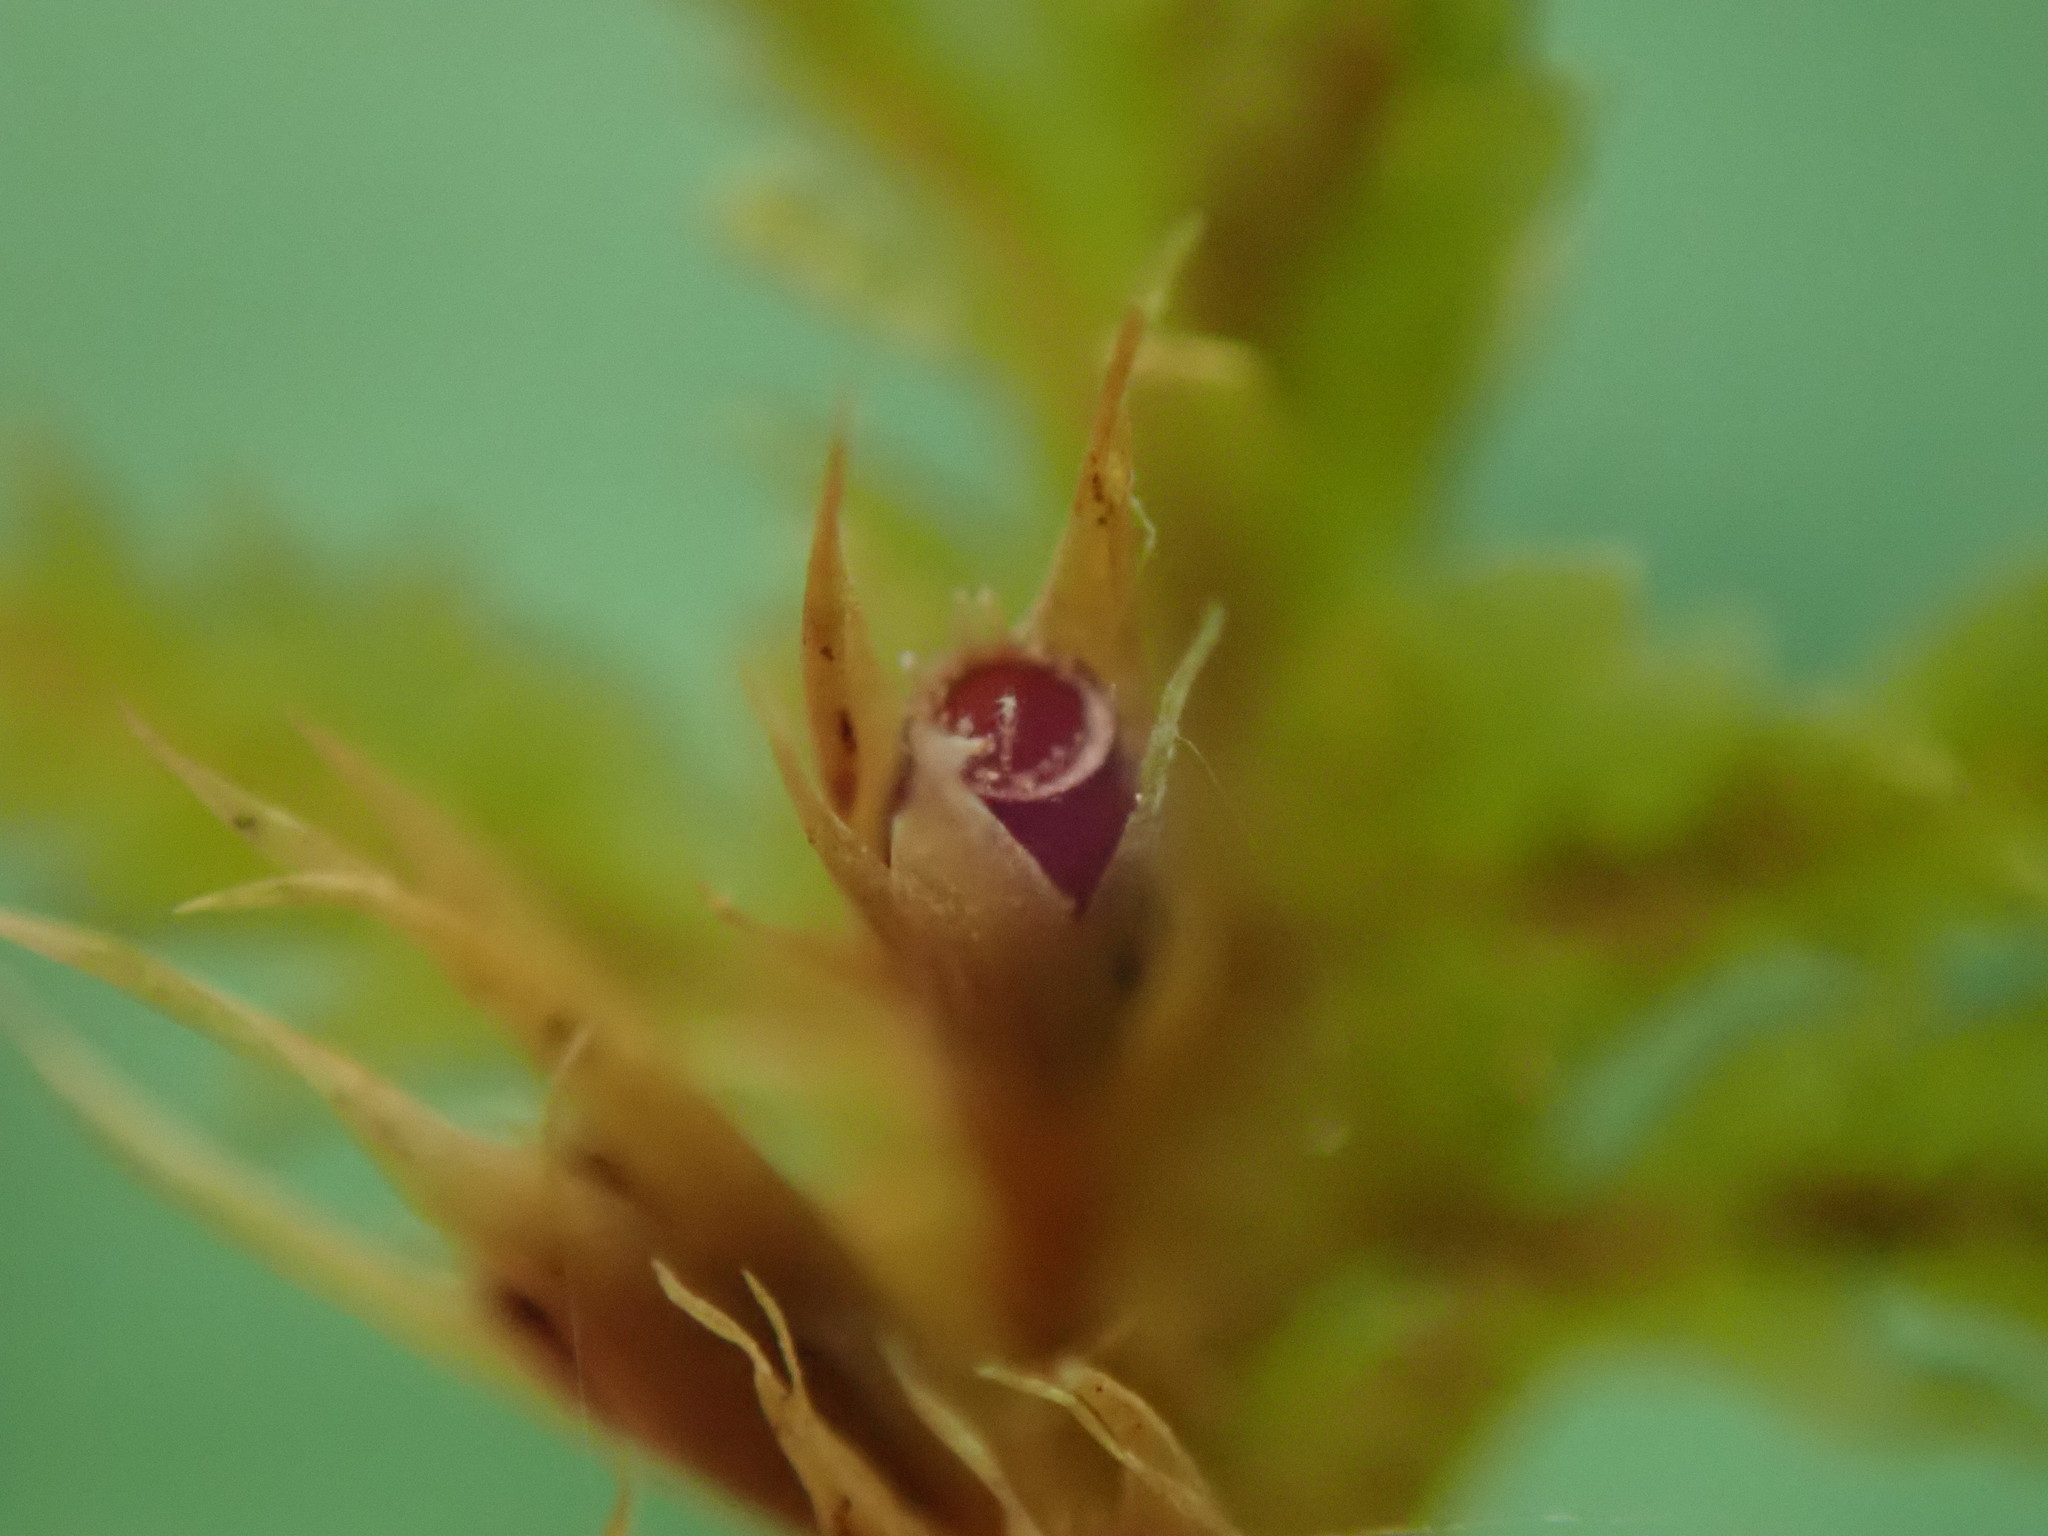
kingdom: Plantae
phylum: Bryophyta
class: Bryopsida
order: Hypnales
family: Neckeraceae
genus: Metaneckera
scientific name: Metaneckera menziesii
